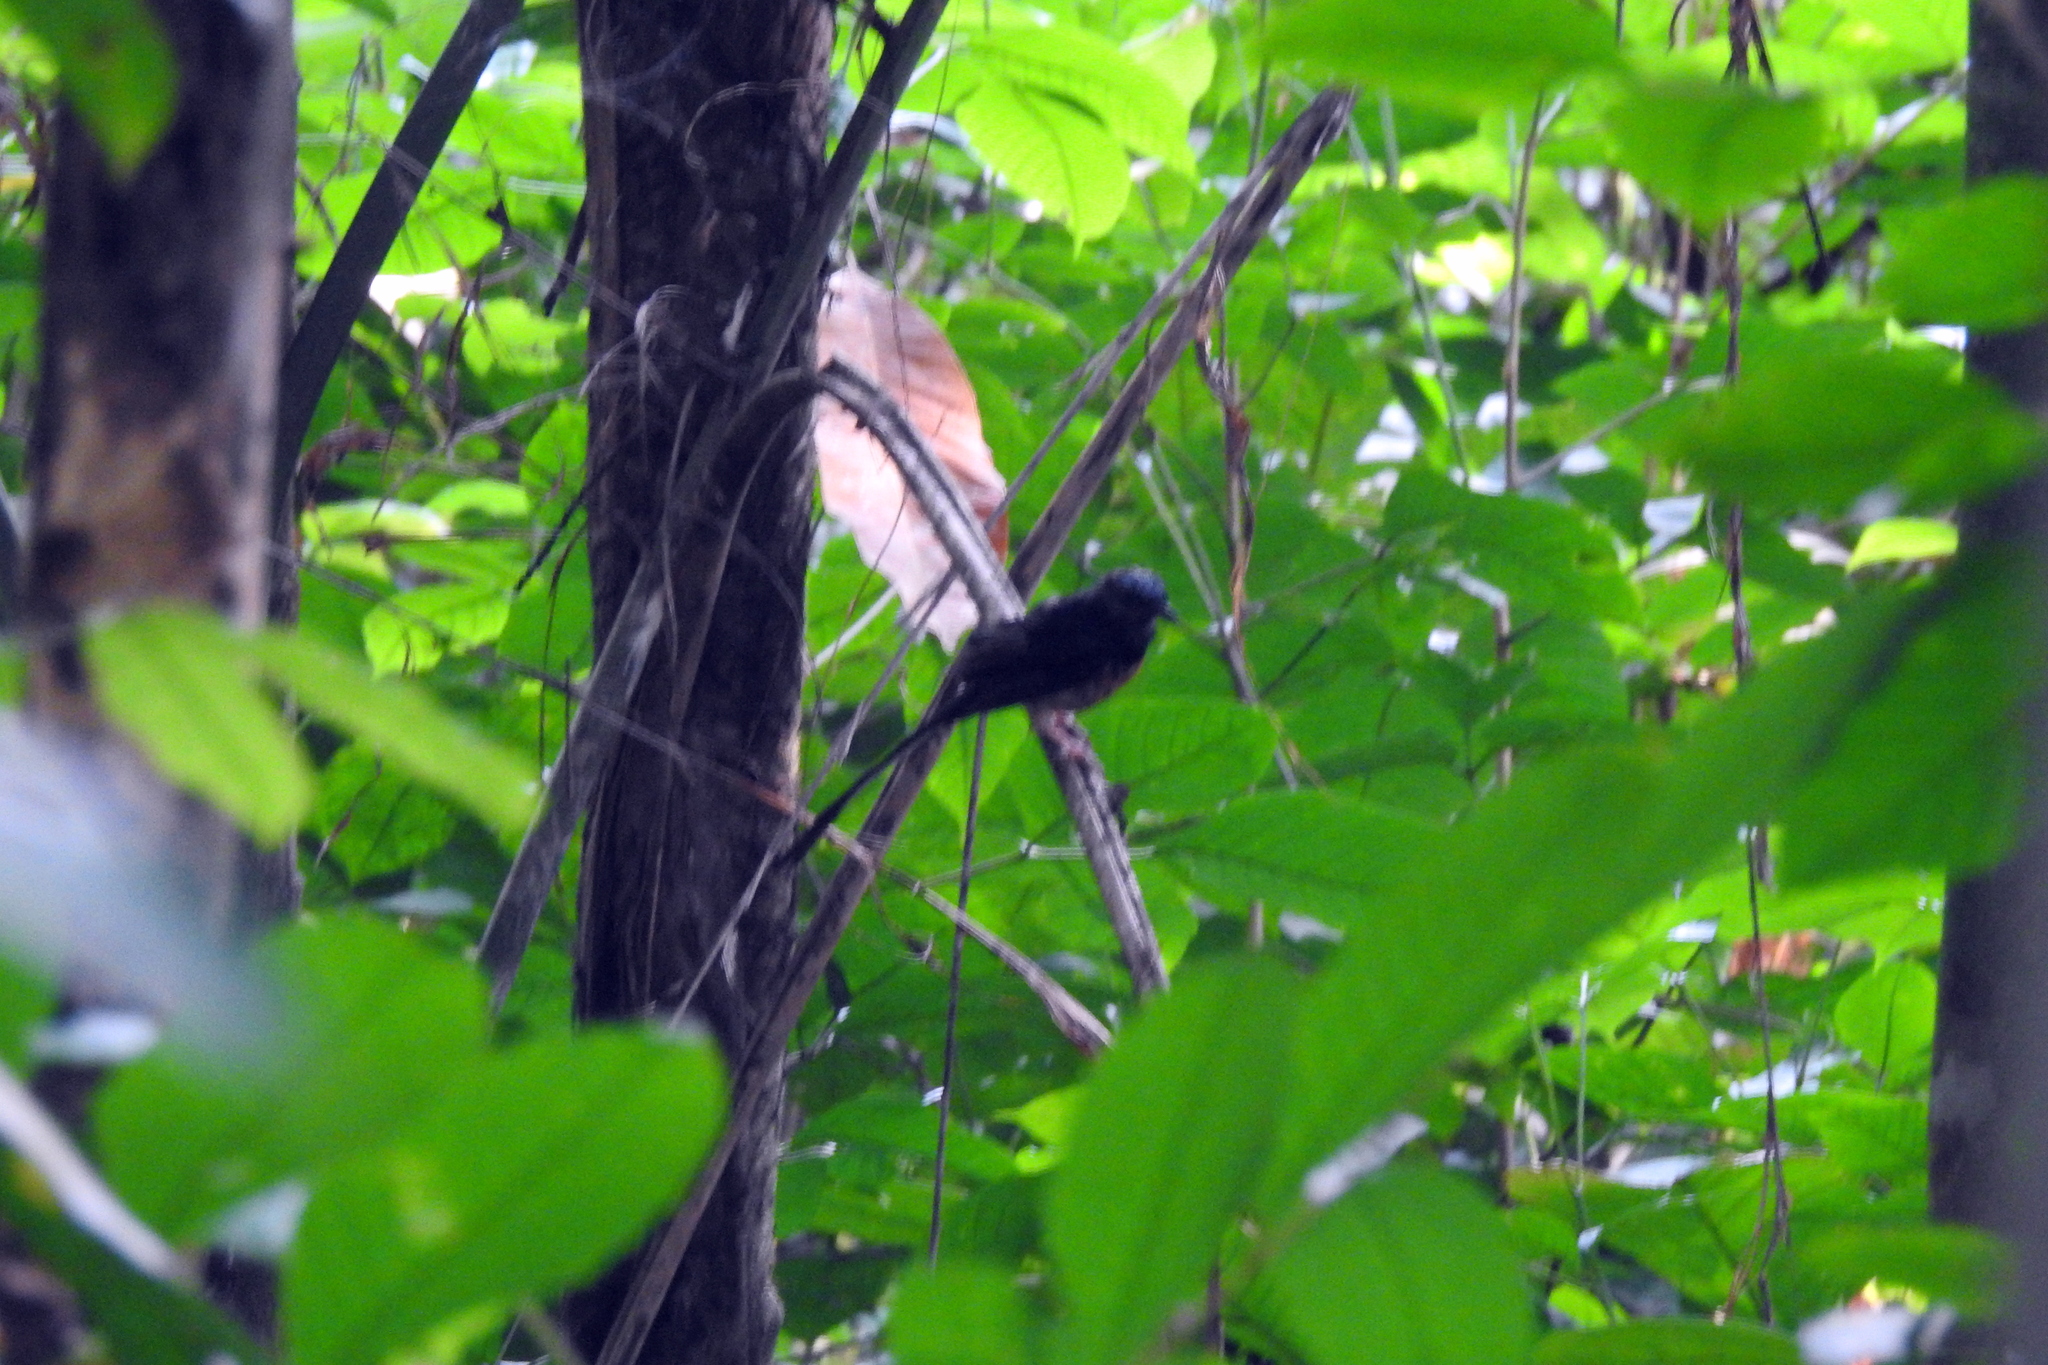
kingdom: Animalia
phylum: Chordata
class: Aves
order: Passeriformes
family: Muscicapidae
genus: Copsychus
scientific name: Copsychus malabaricus
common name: White-rumped shama
